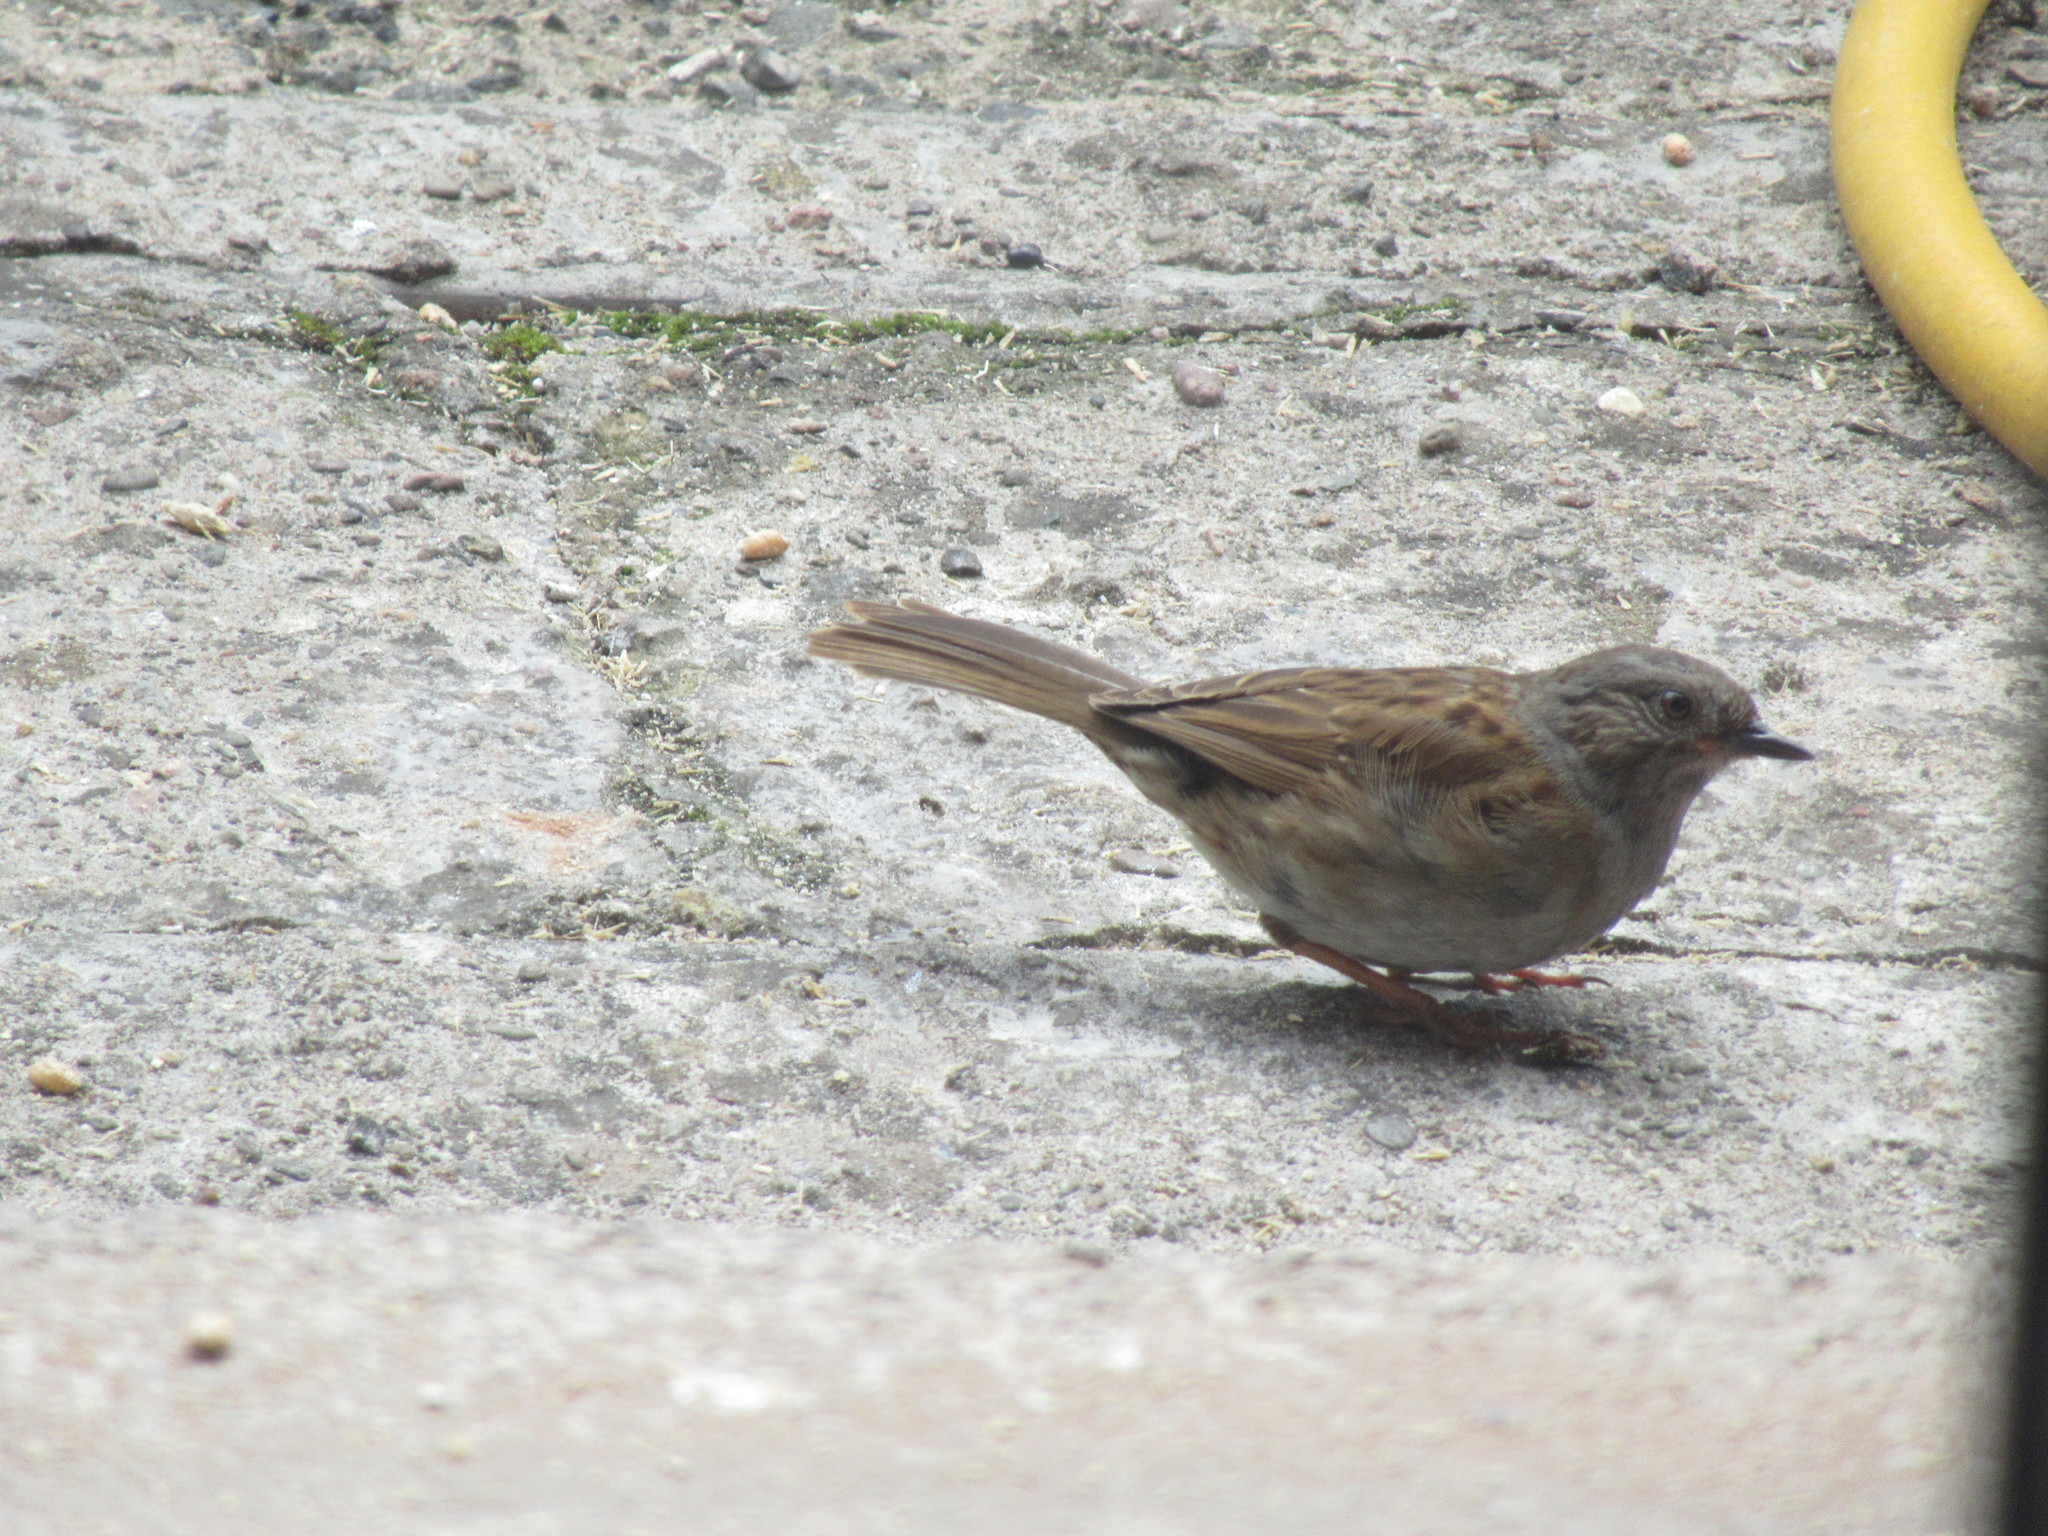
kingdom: Animalia
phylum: Chordata
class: Aves
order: Passeriformes
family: Prunellidae
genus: Prunella
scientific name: Prunella modularis
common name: Dunnock
